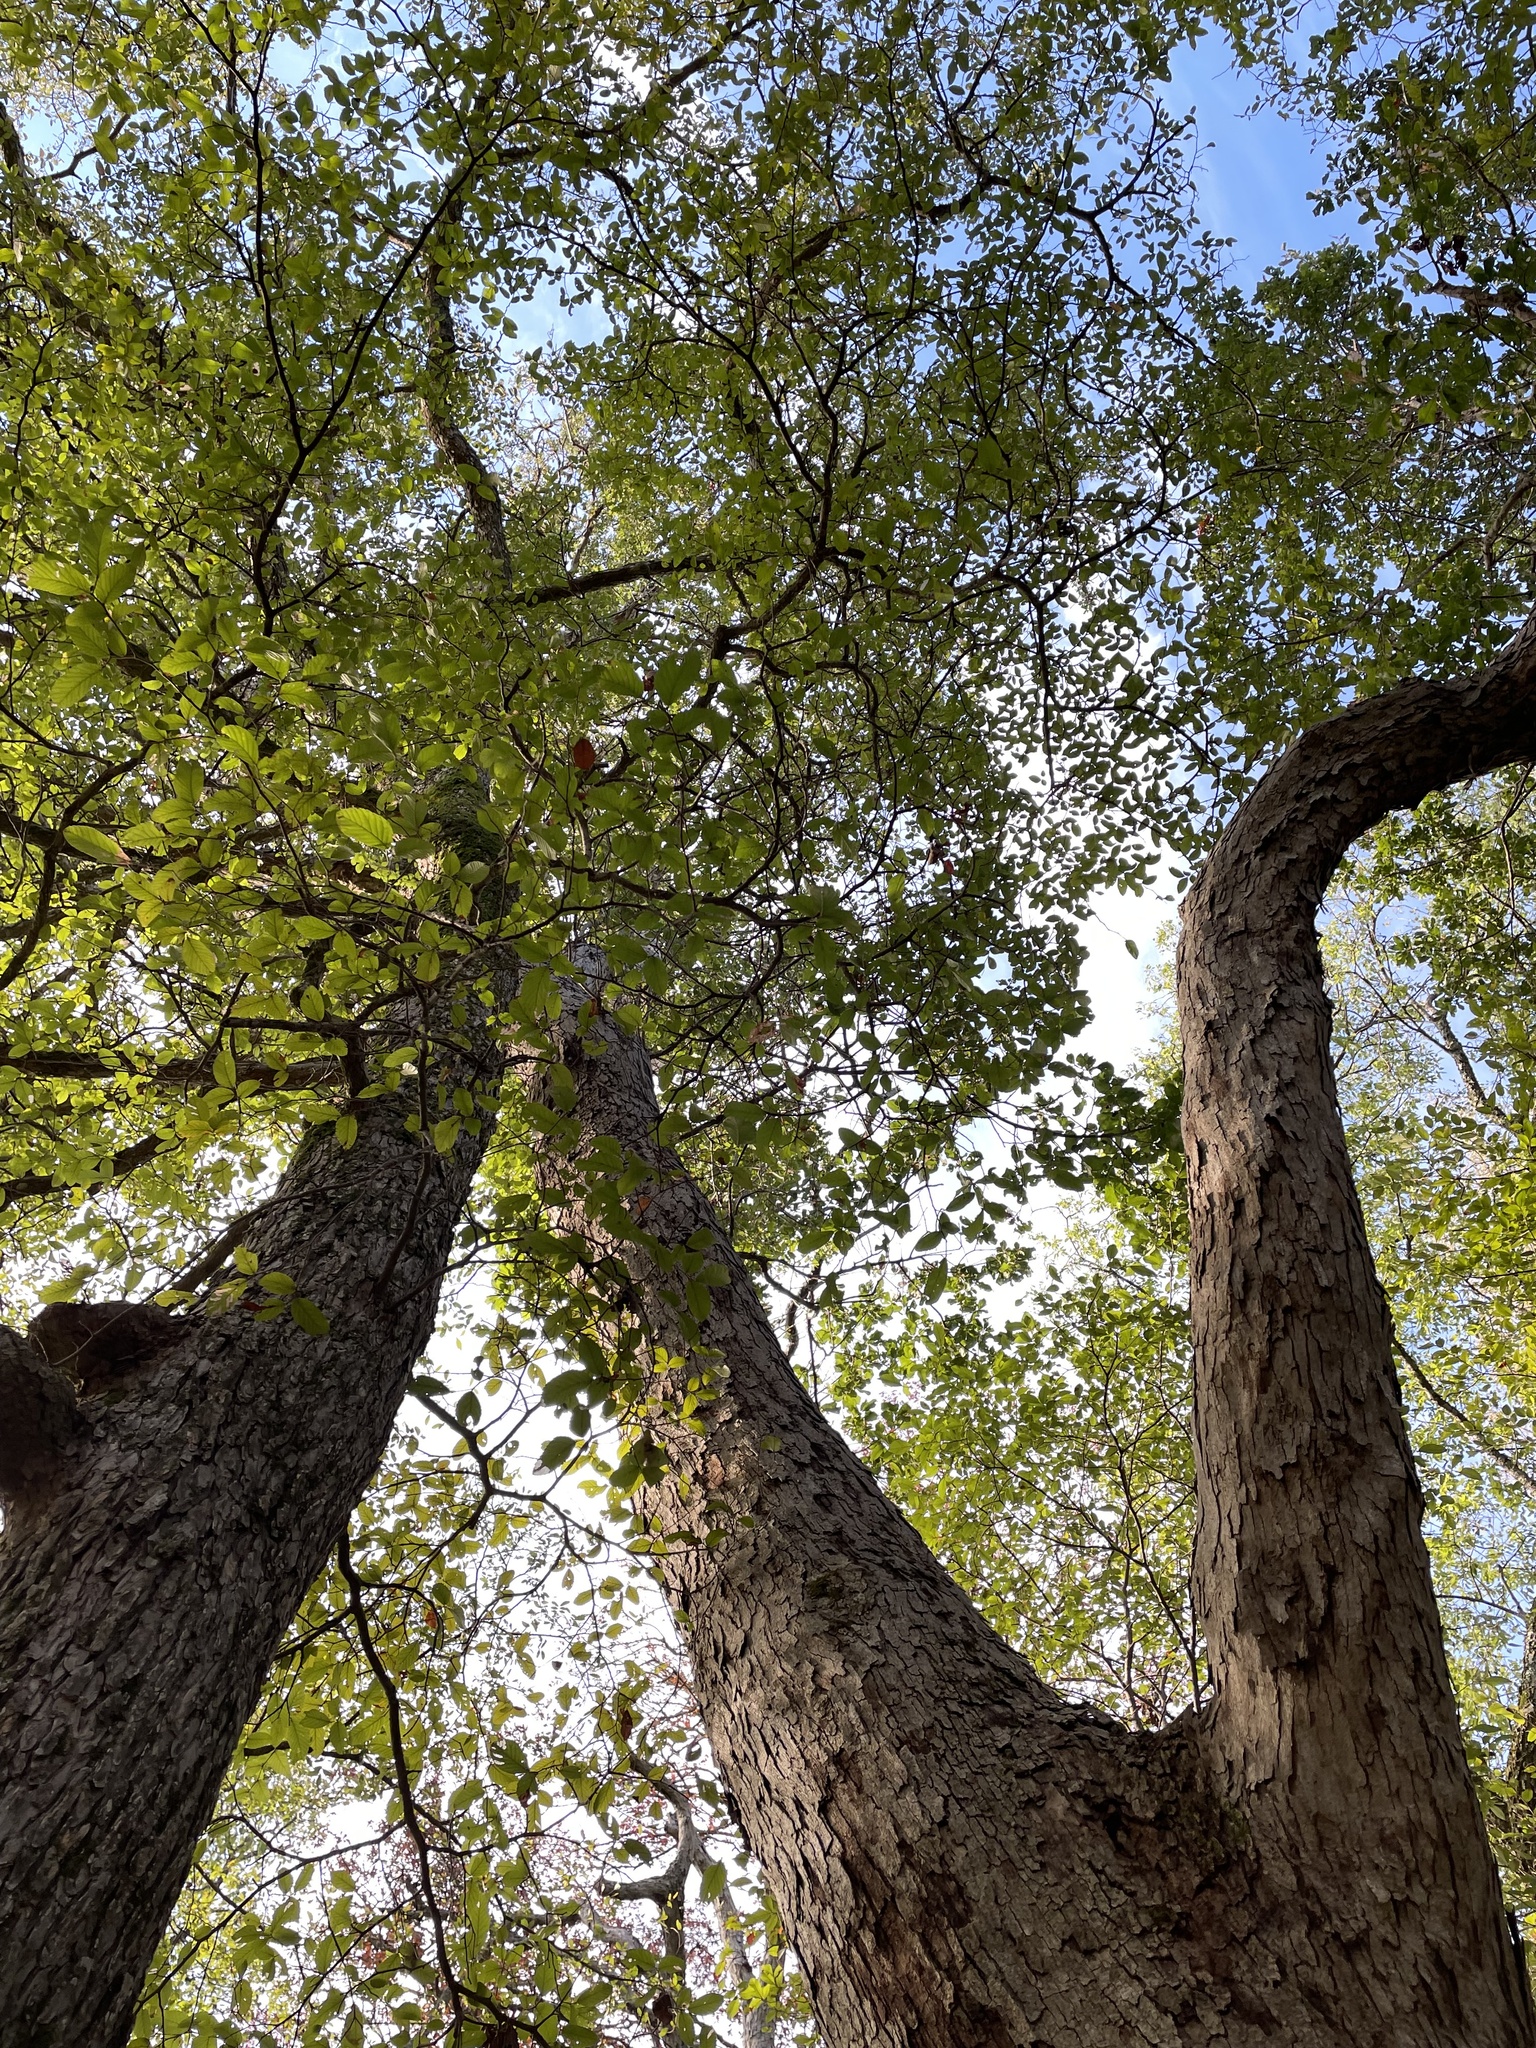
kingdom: Plantae
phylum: Tracheophyta
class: Magnoliopsida
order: Fagales
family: Fagaceae
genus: Quercus
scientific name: Quercus sinuata
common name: Durand oak
